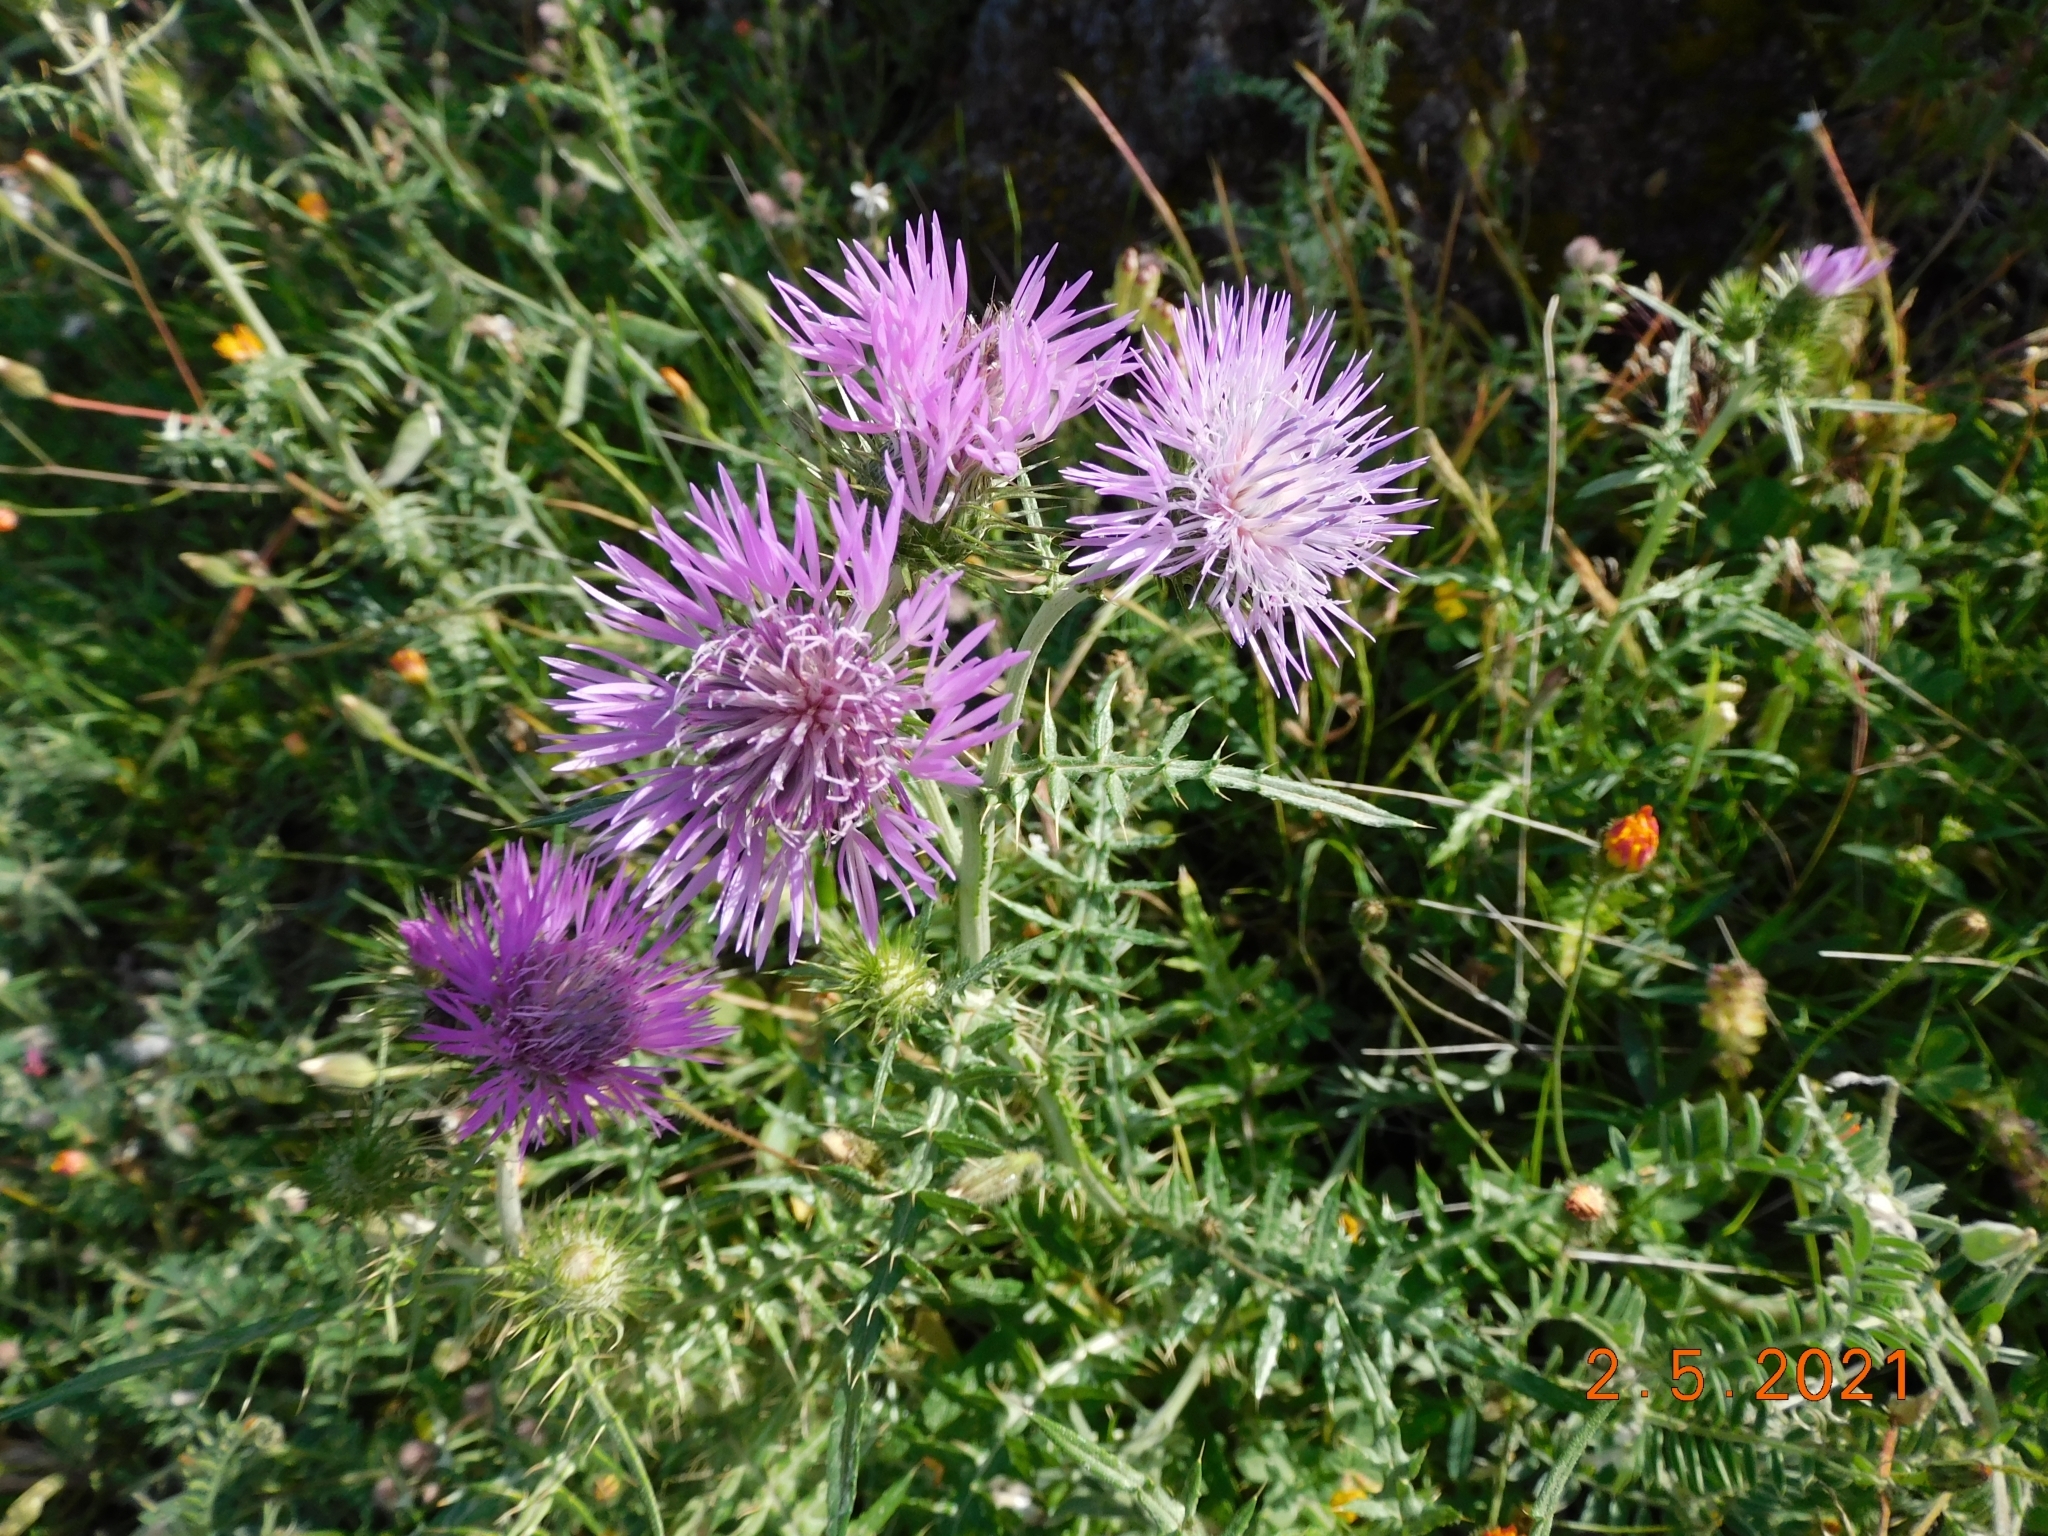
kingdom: Plantae
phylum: Tracheophyta
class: Magnoliopsida
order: Asterales
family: Asteraceae
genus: Galactites
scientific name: Galactites tomentosa
